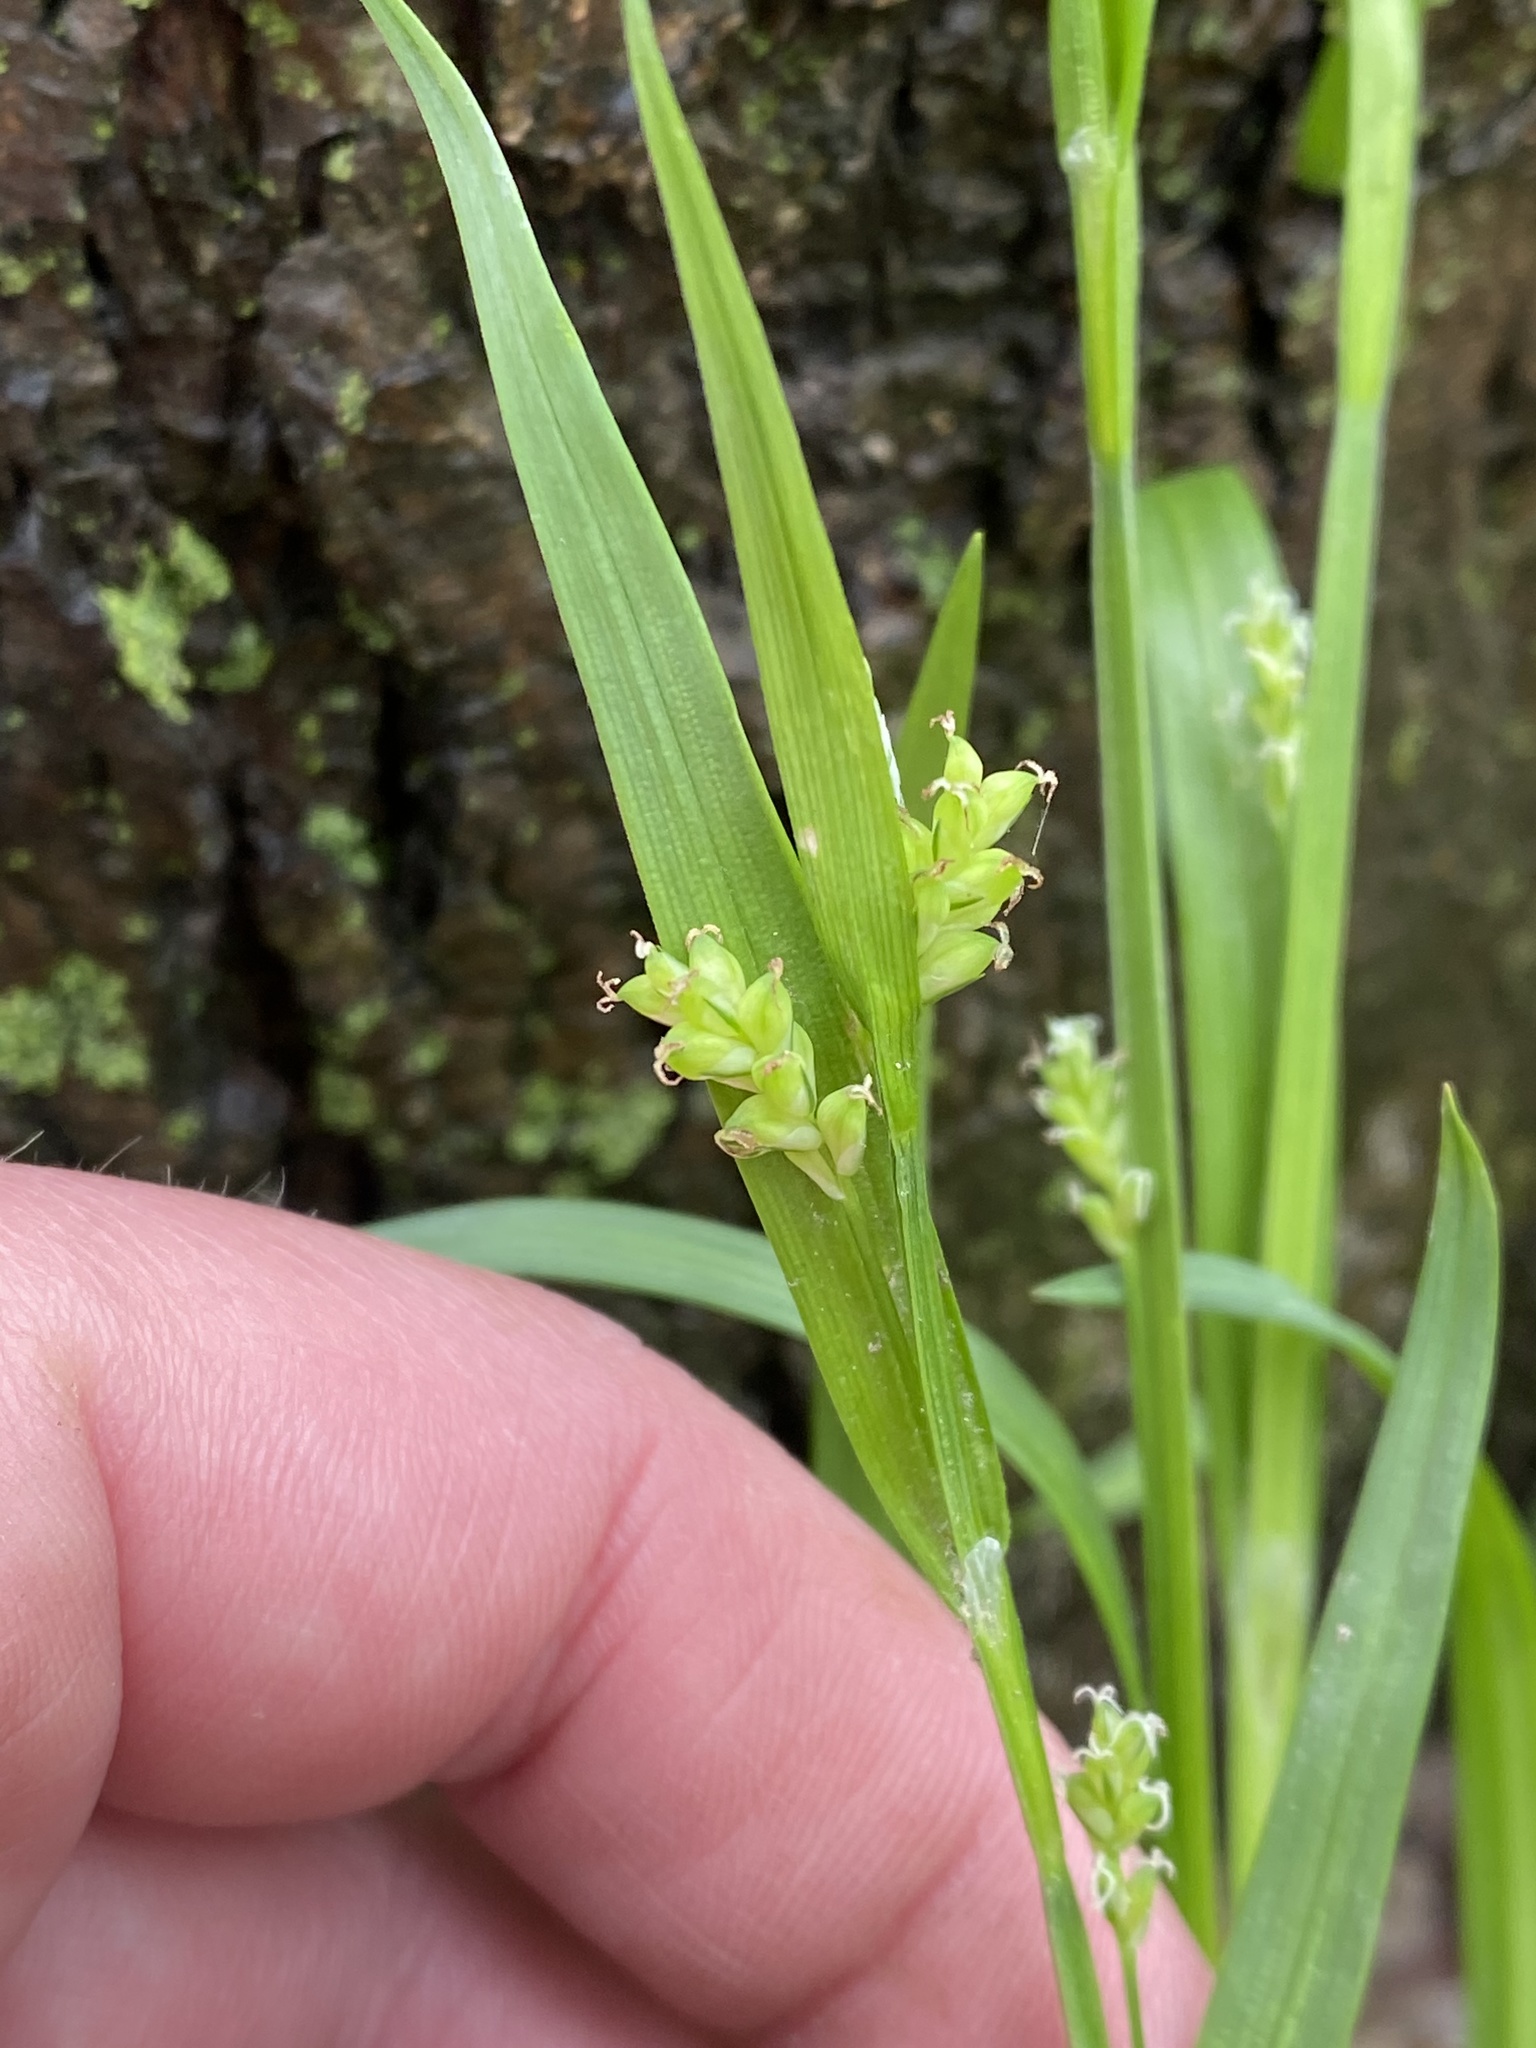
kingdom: Plantae
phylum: Tracheophyta
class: Liliopsida
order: Poales
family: Cyperaceae
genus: Carex
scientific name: Carex blanda
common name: Bland sedge
